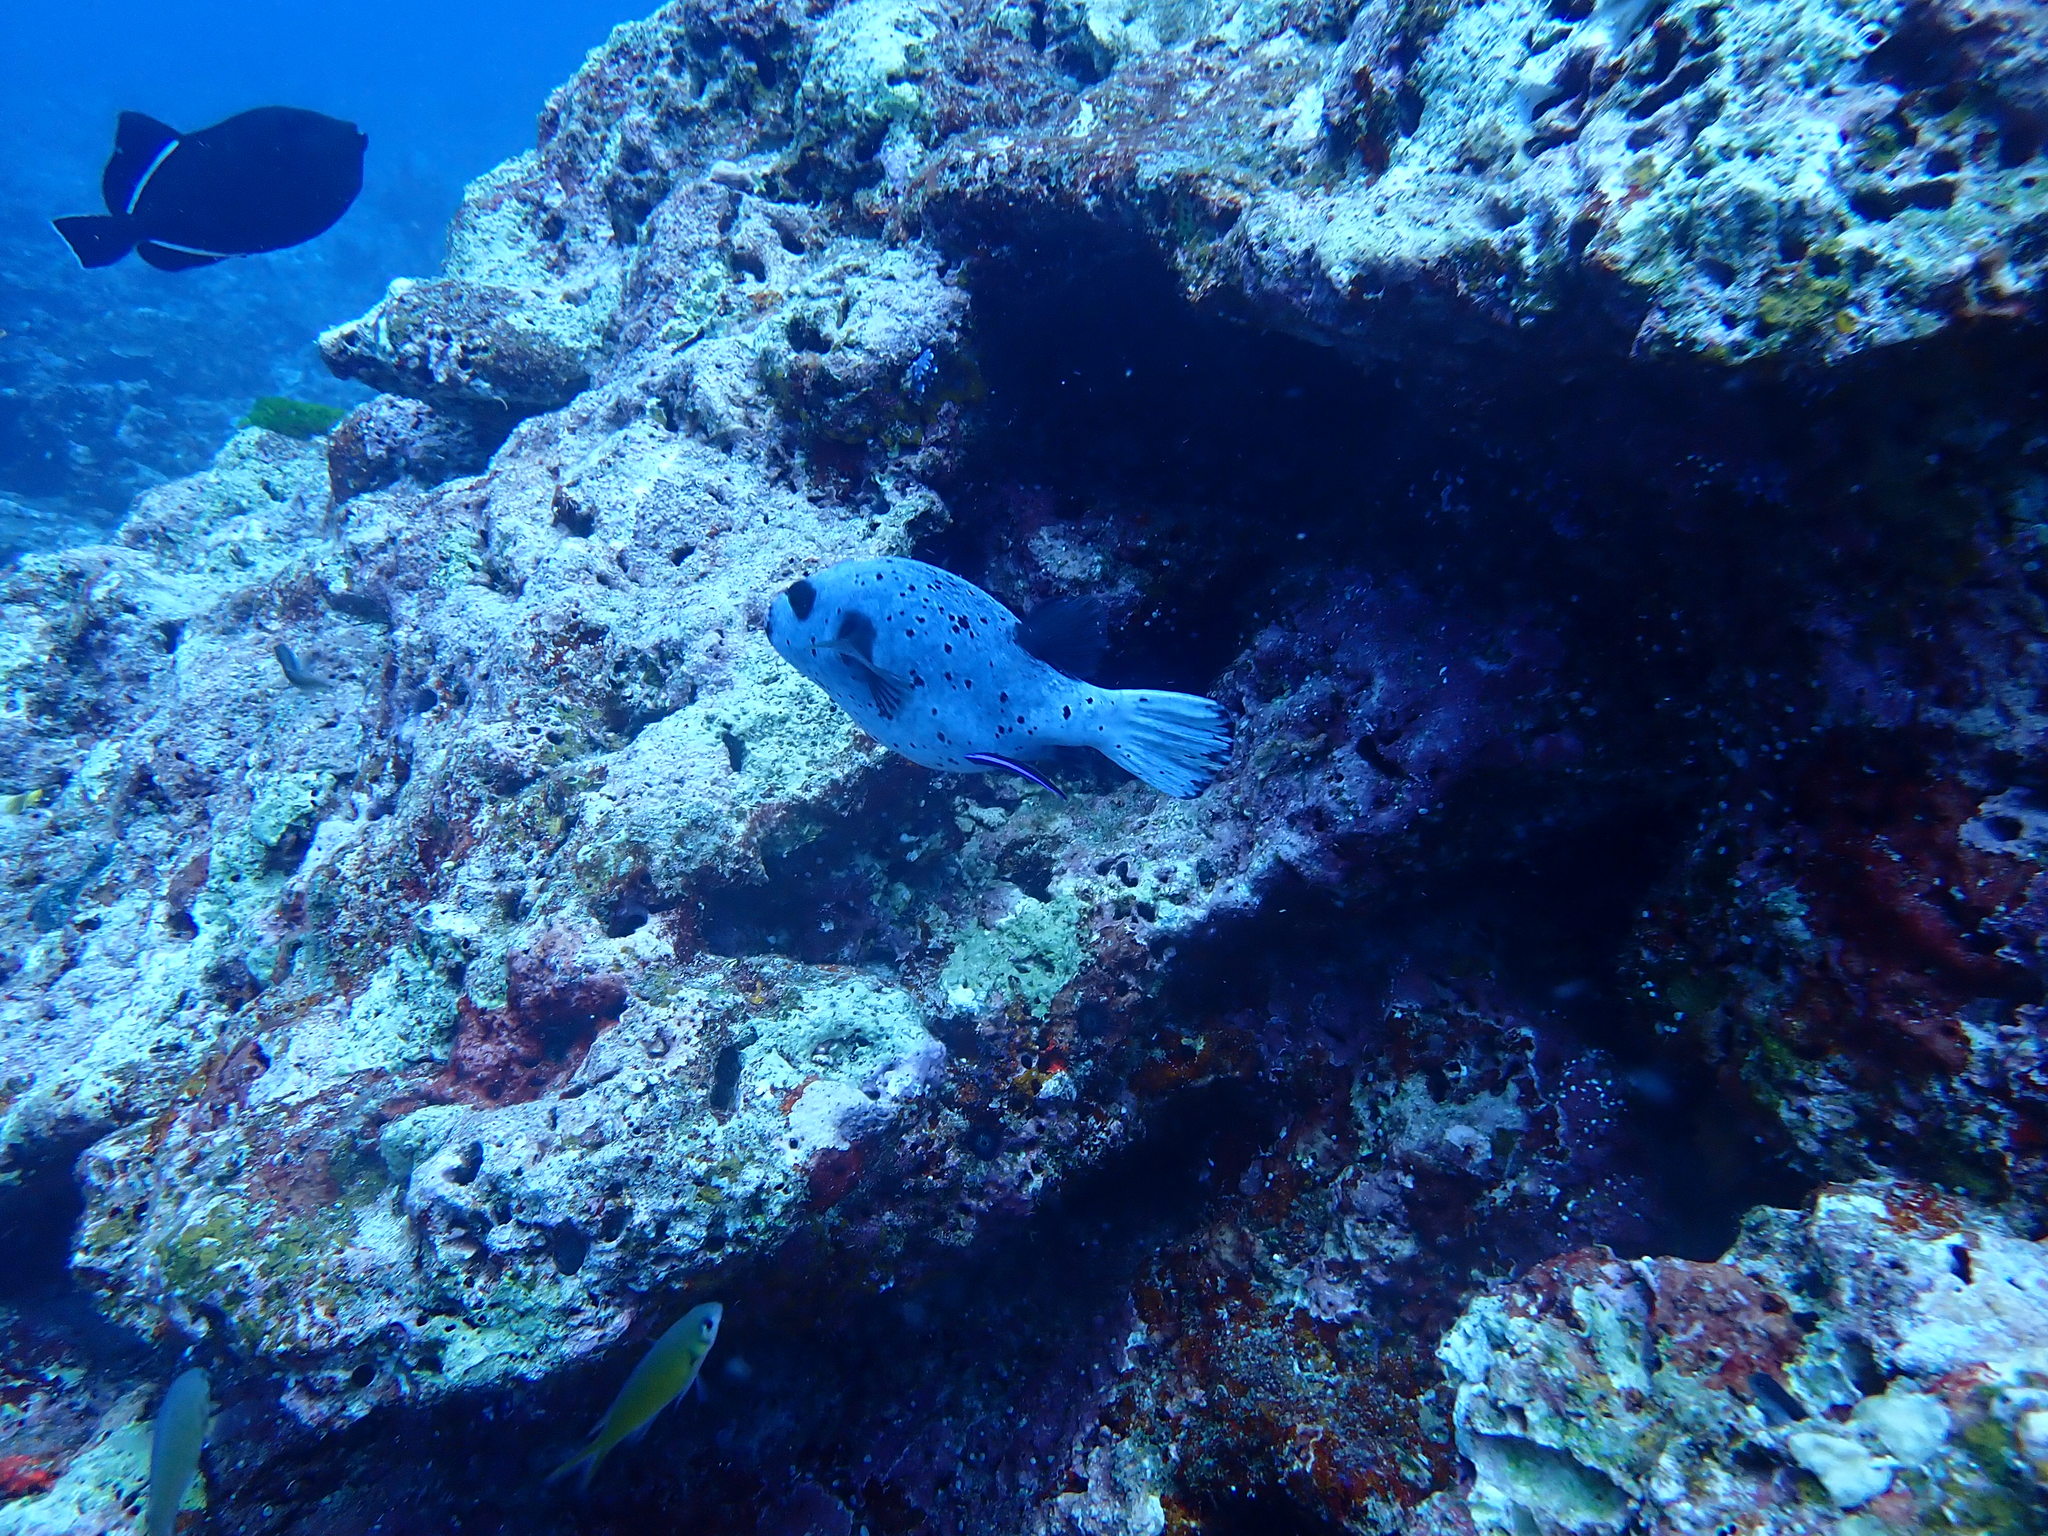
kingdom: Animalia
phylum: Chordata
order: Tetraodontiformes
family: Tetraodontidae
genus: Arothron
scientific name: Arothron nigropunctatus
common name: Black spotted blow fish
